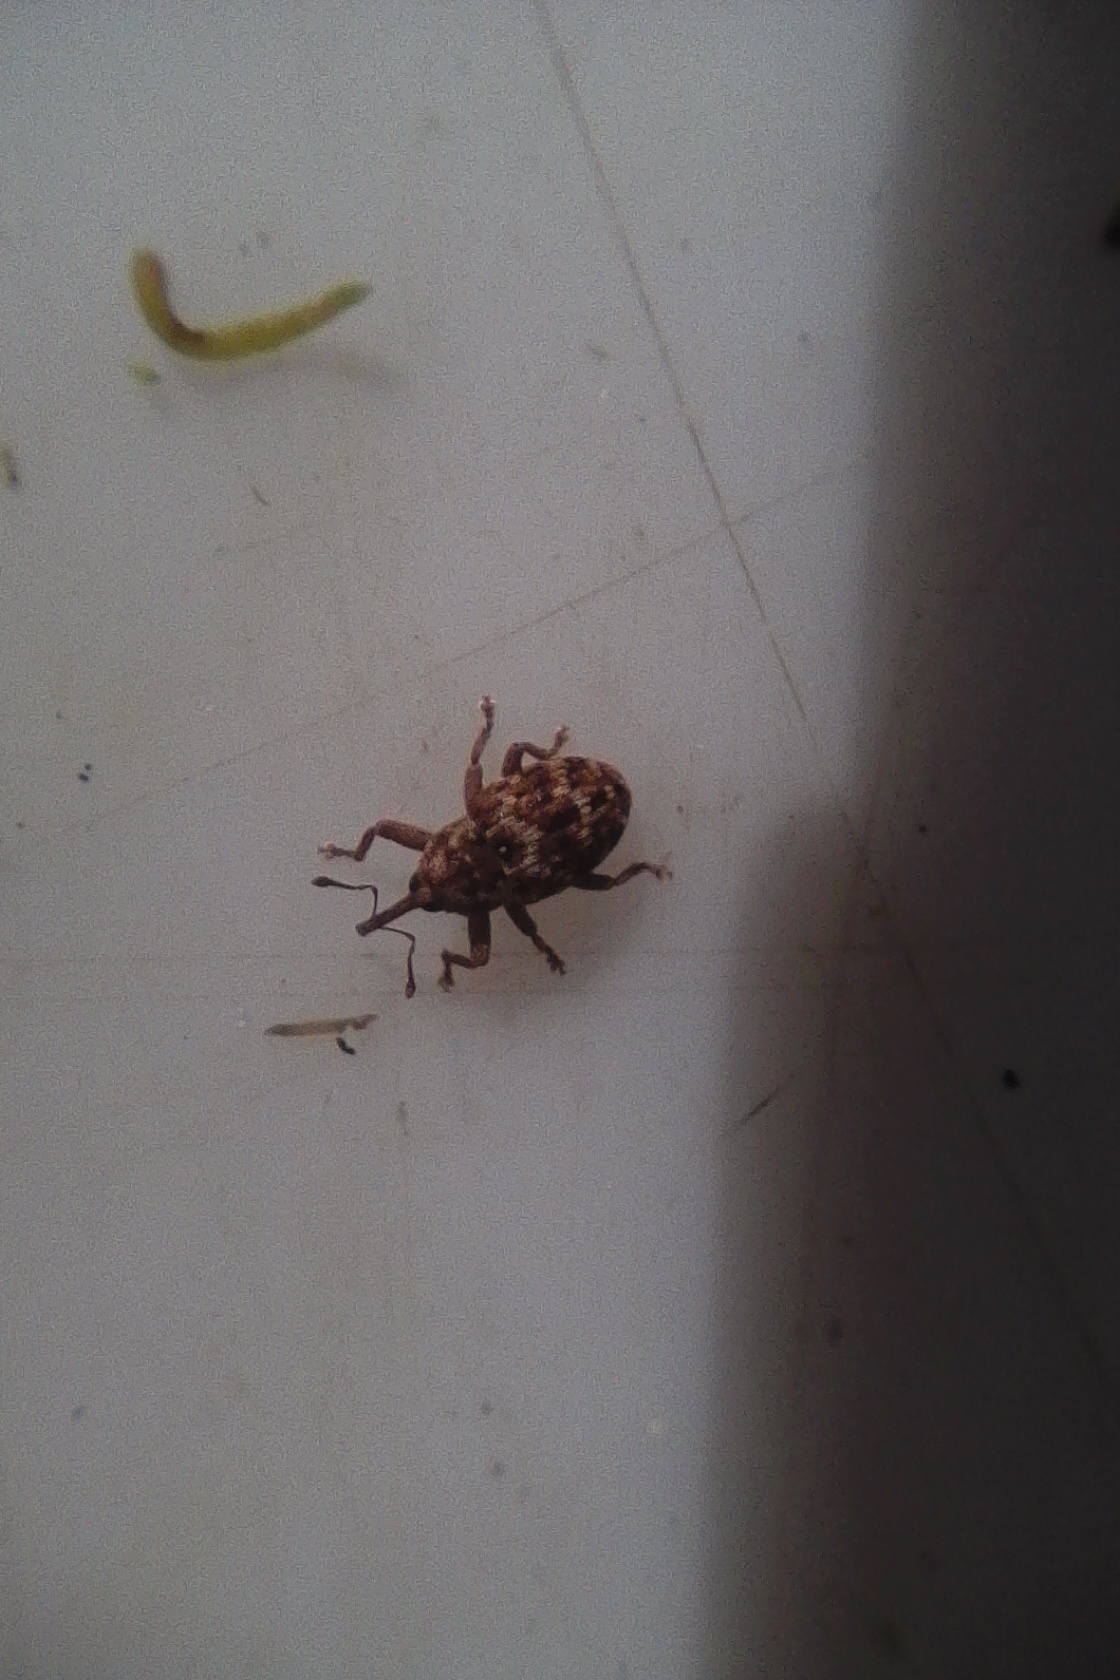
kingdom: Animalia
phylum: Arthropoda
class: Insecta
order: Coleoptera
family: Curculionidae
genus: Storeus
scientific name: Storeus albosignatus
